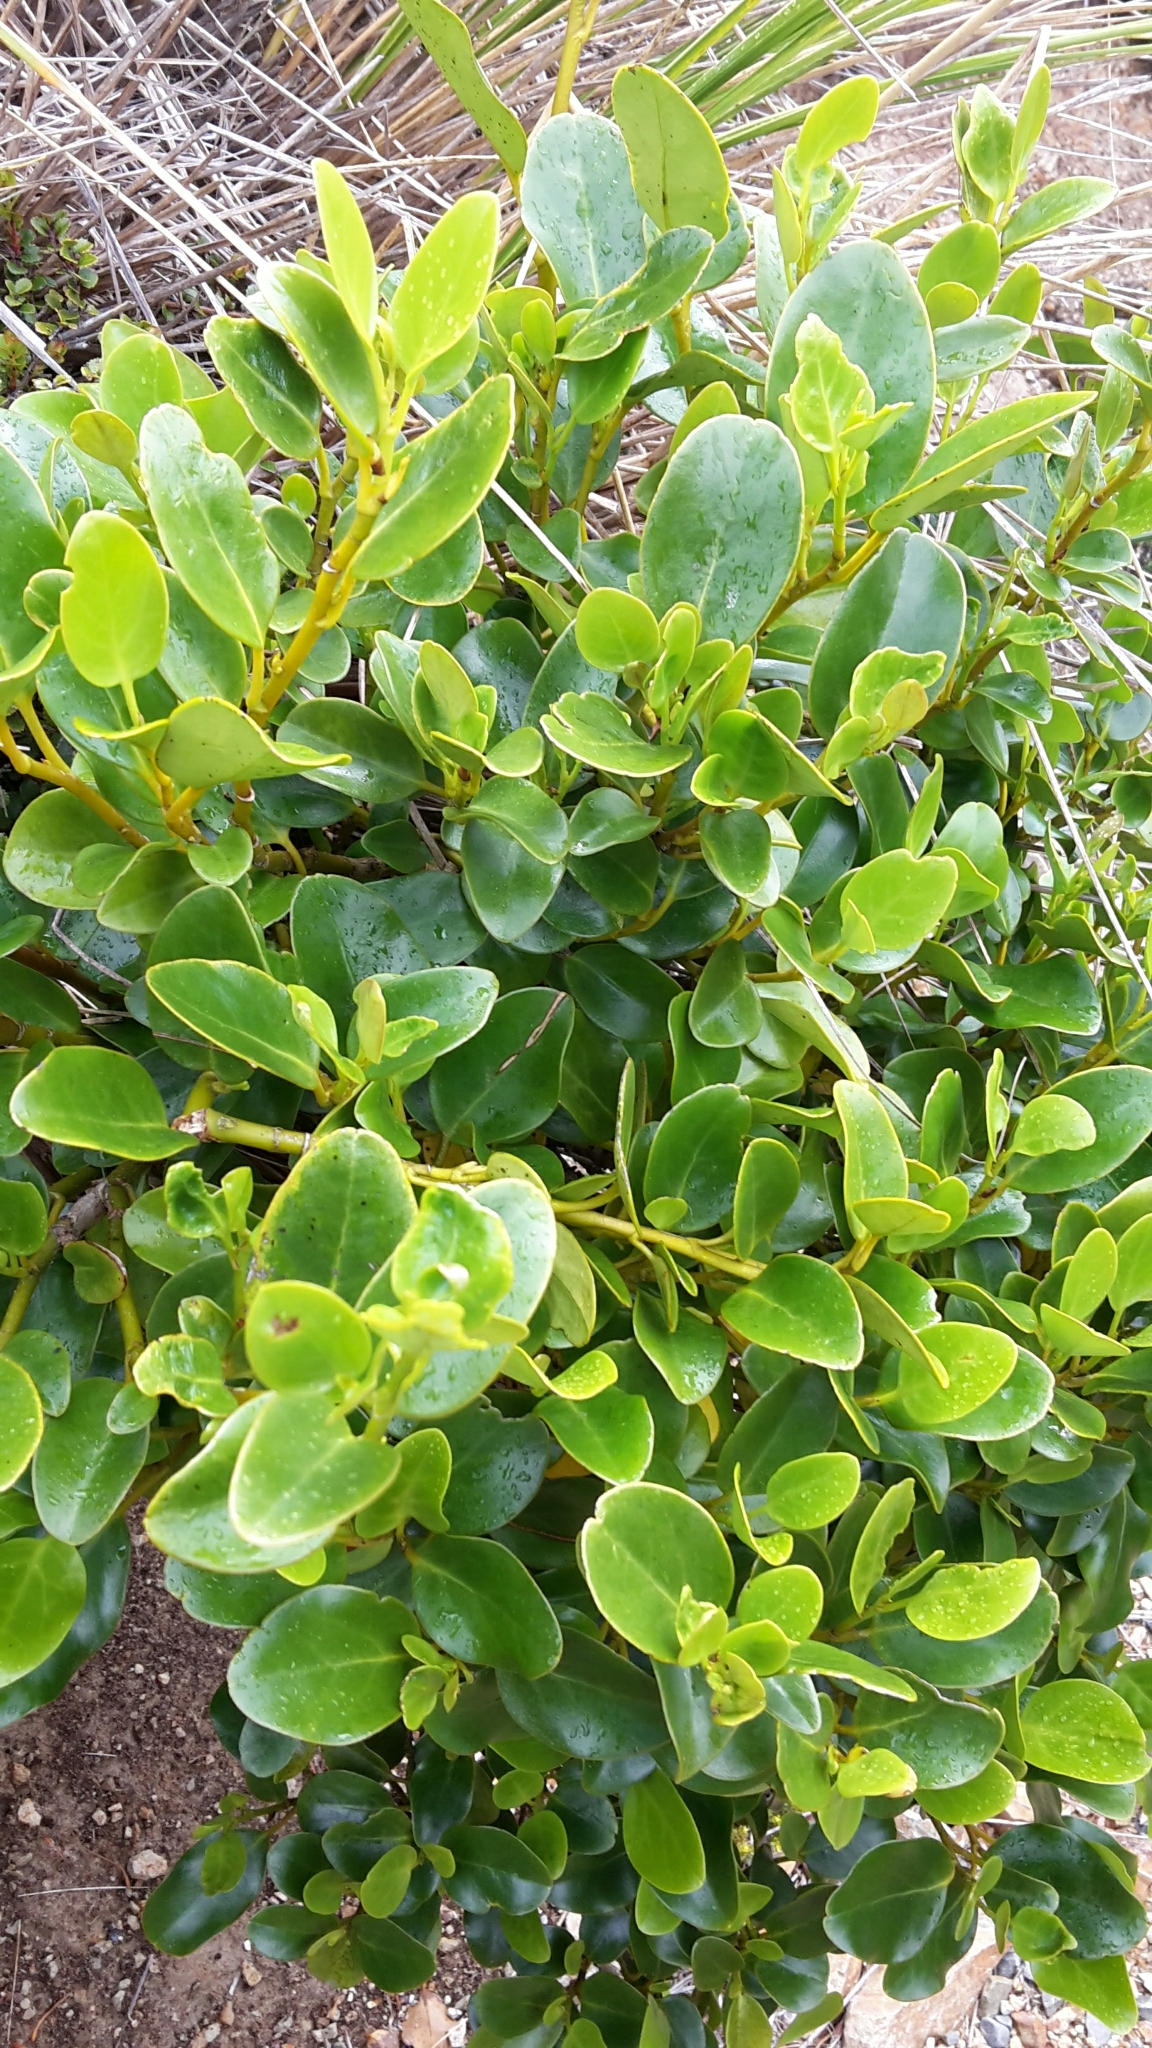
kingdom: Plantae
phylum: Tracheophyta
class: Magnoliopsida
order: Apiales
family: Griseliniaceae
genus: Griselinia
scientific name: Griselinia littoralis
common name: New zealand broadleaf
